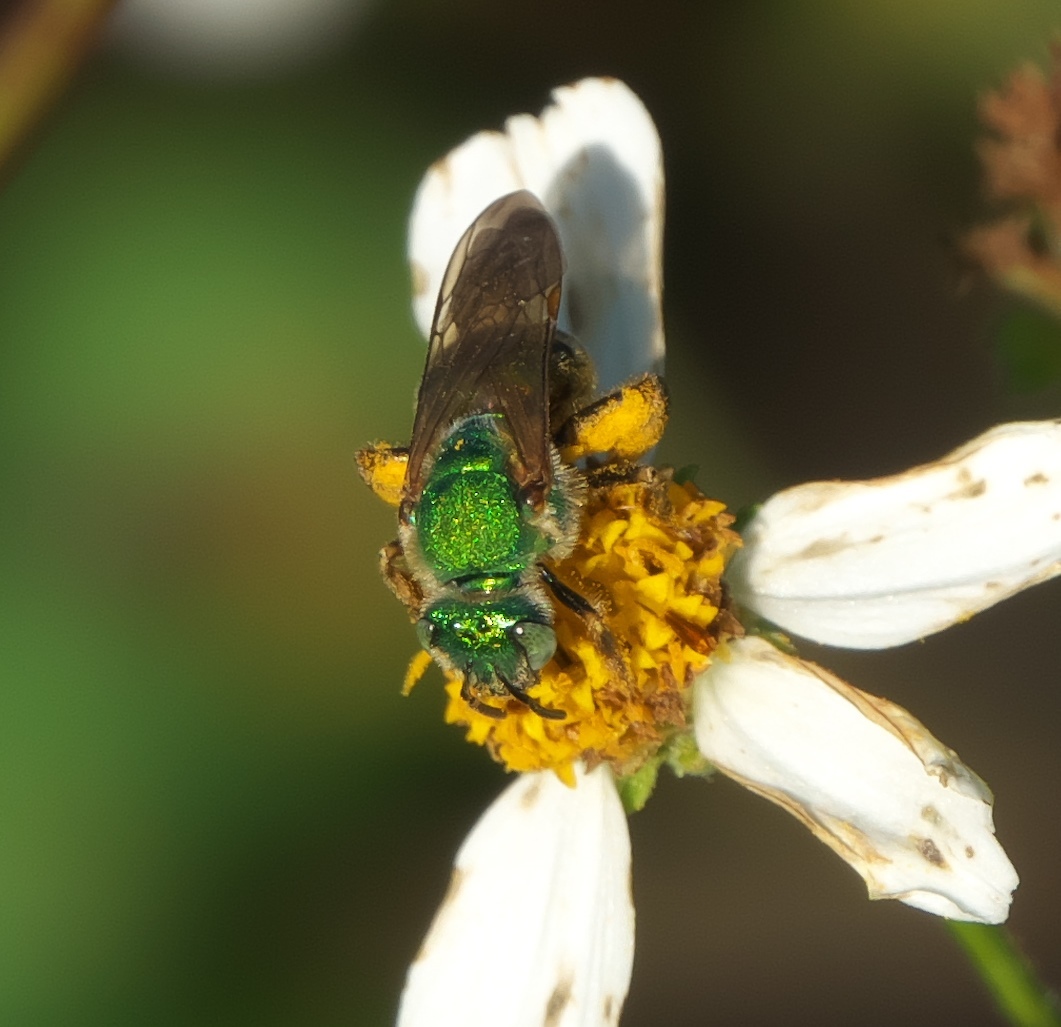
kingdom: Animalia
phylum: Arthropoda
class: Insecta
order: Hymenoptera
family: Halictidae
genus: Agapostemon
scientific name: Agapostemon splendens
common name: Brown-winged striped sweat bee
